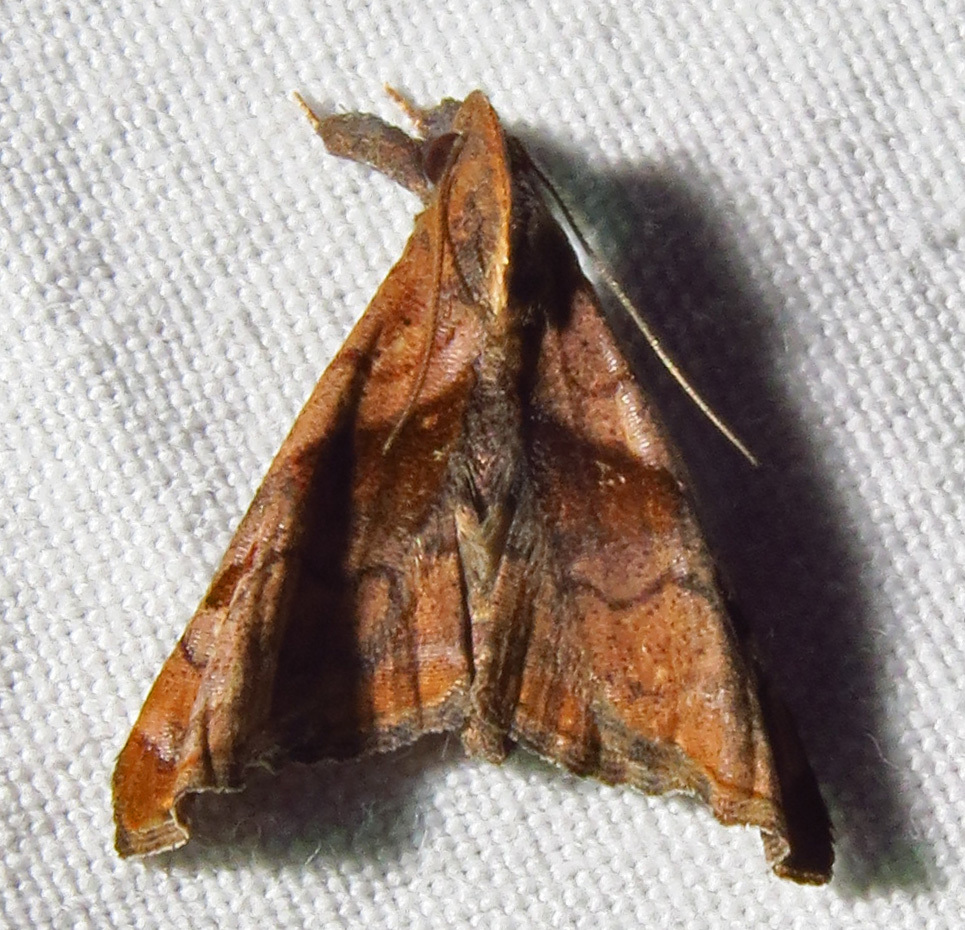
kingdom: Animalia
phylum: Arthropoda
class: Insecta
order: Lepidoptera
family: Erebidae
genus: Palthis
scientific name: Palthis angulalis
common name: Dark-spotted palthis moth
